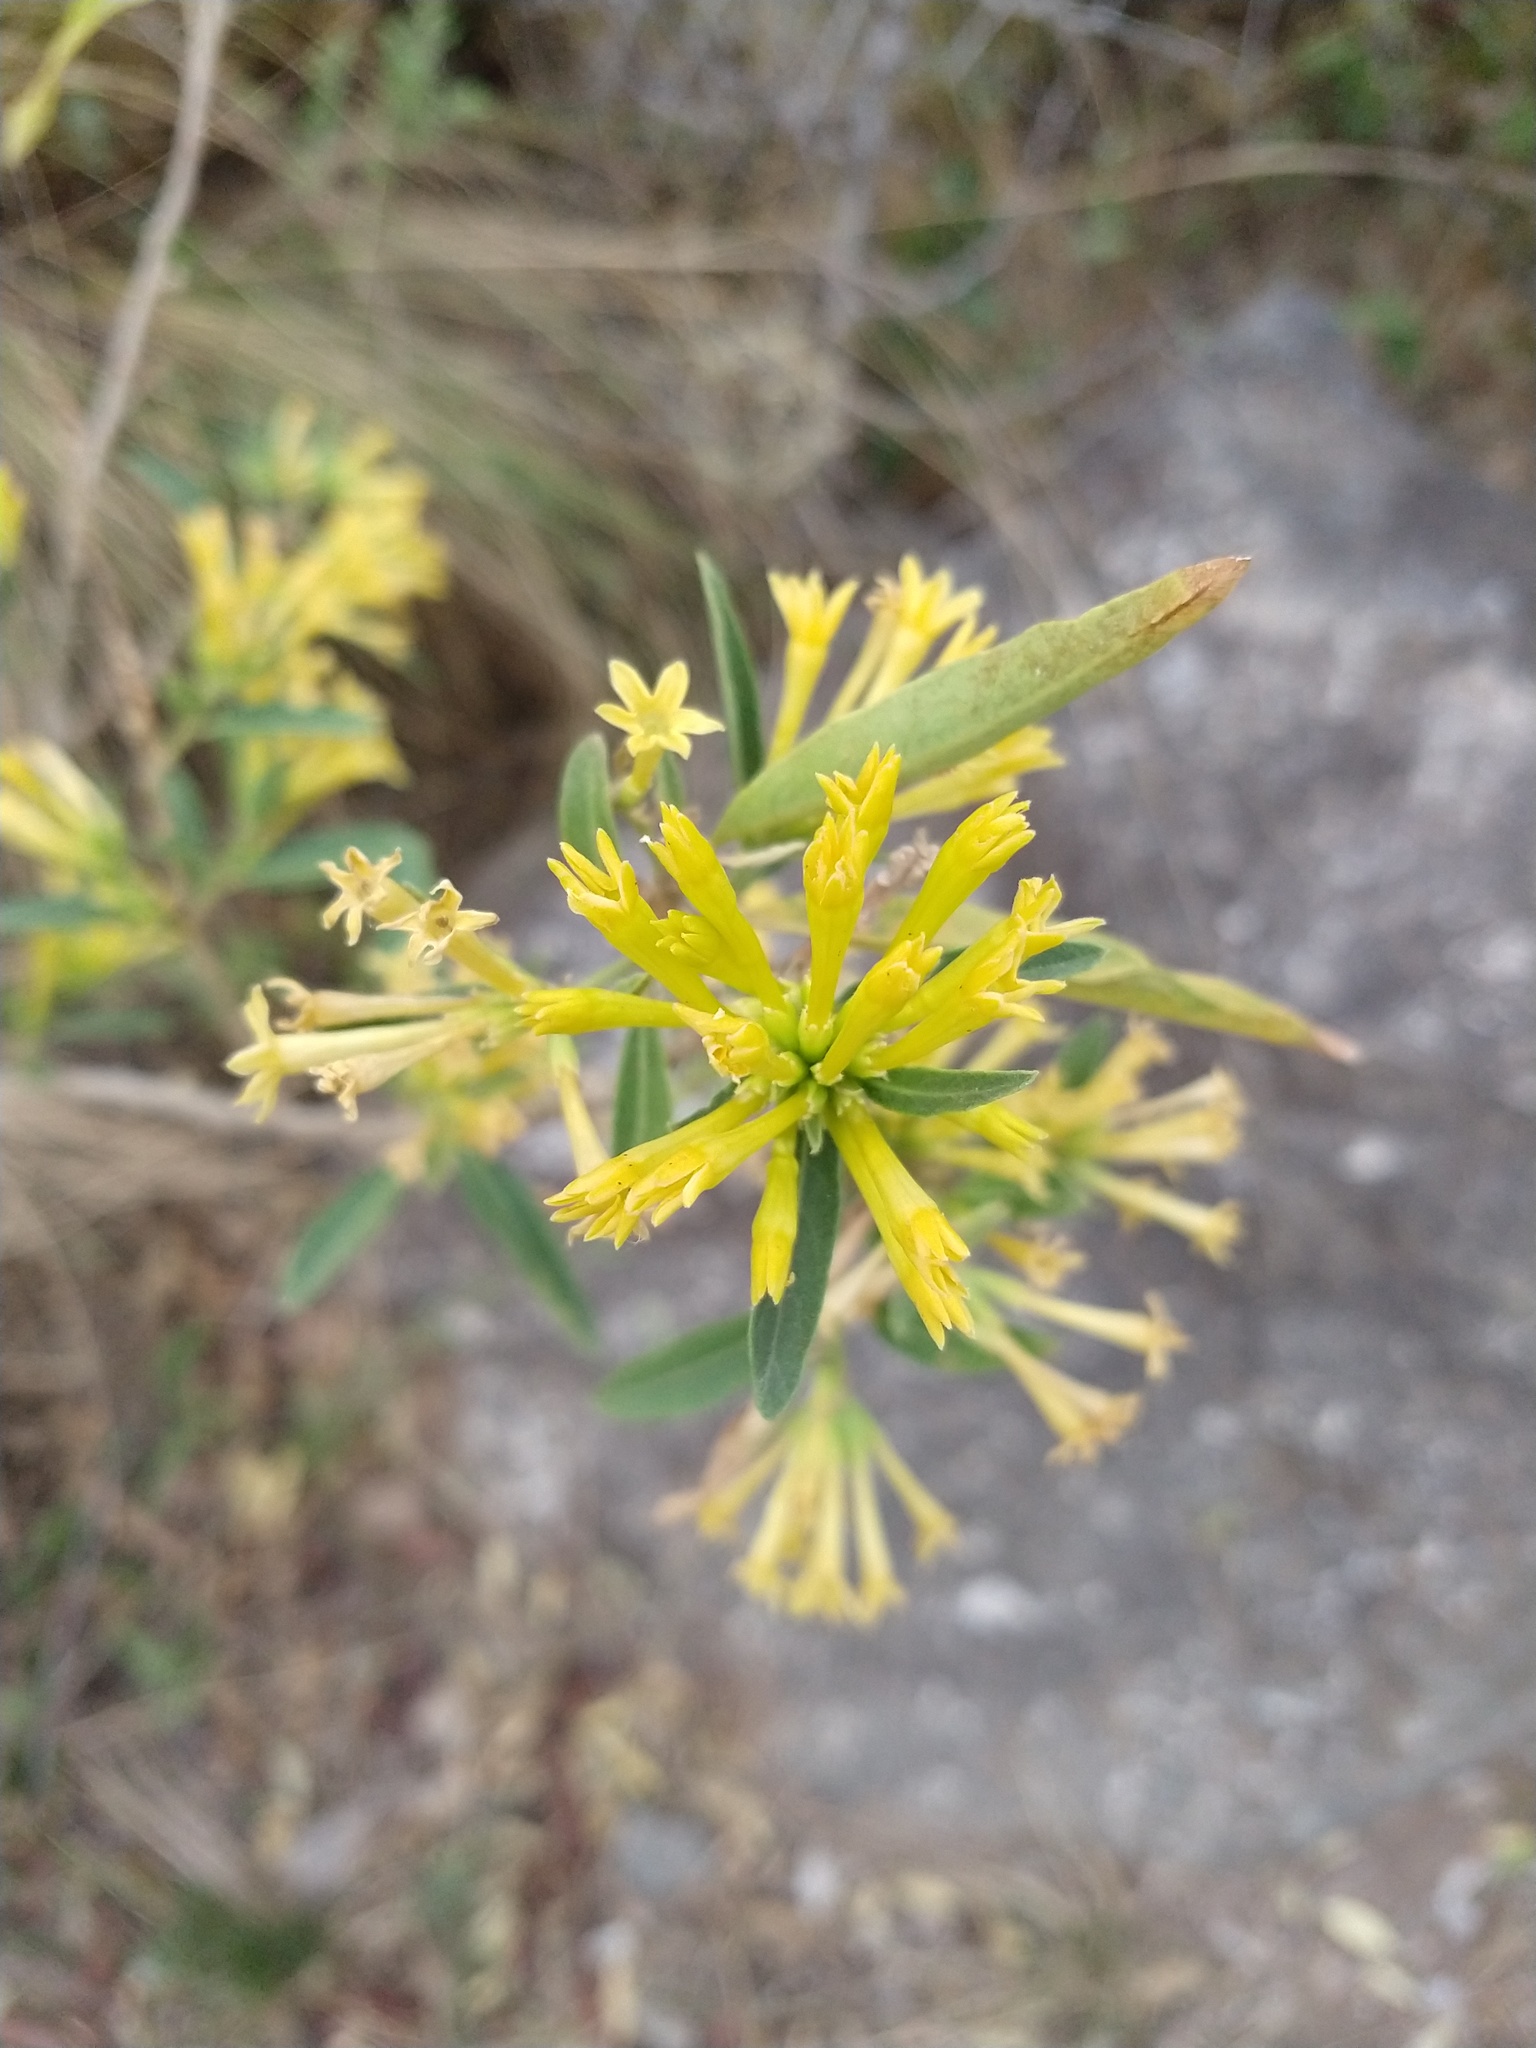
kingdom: Plantae
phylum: Tracheophyta
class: Magnoliopsida
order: Solanales
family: Solanaceae
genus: Cestrum
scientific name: Cestrum parqui
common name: Chilean cestrum
